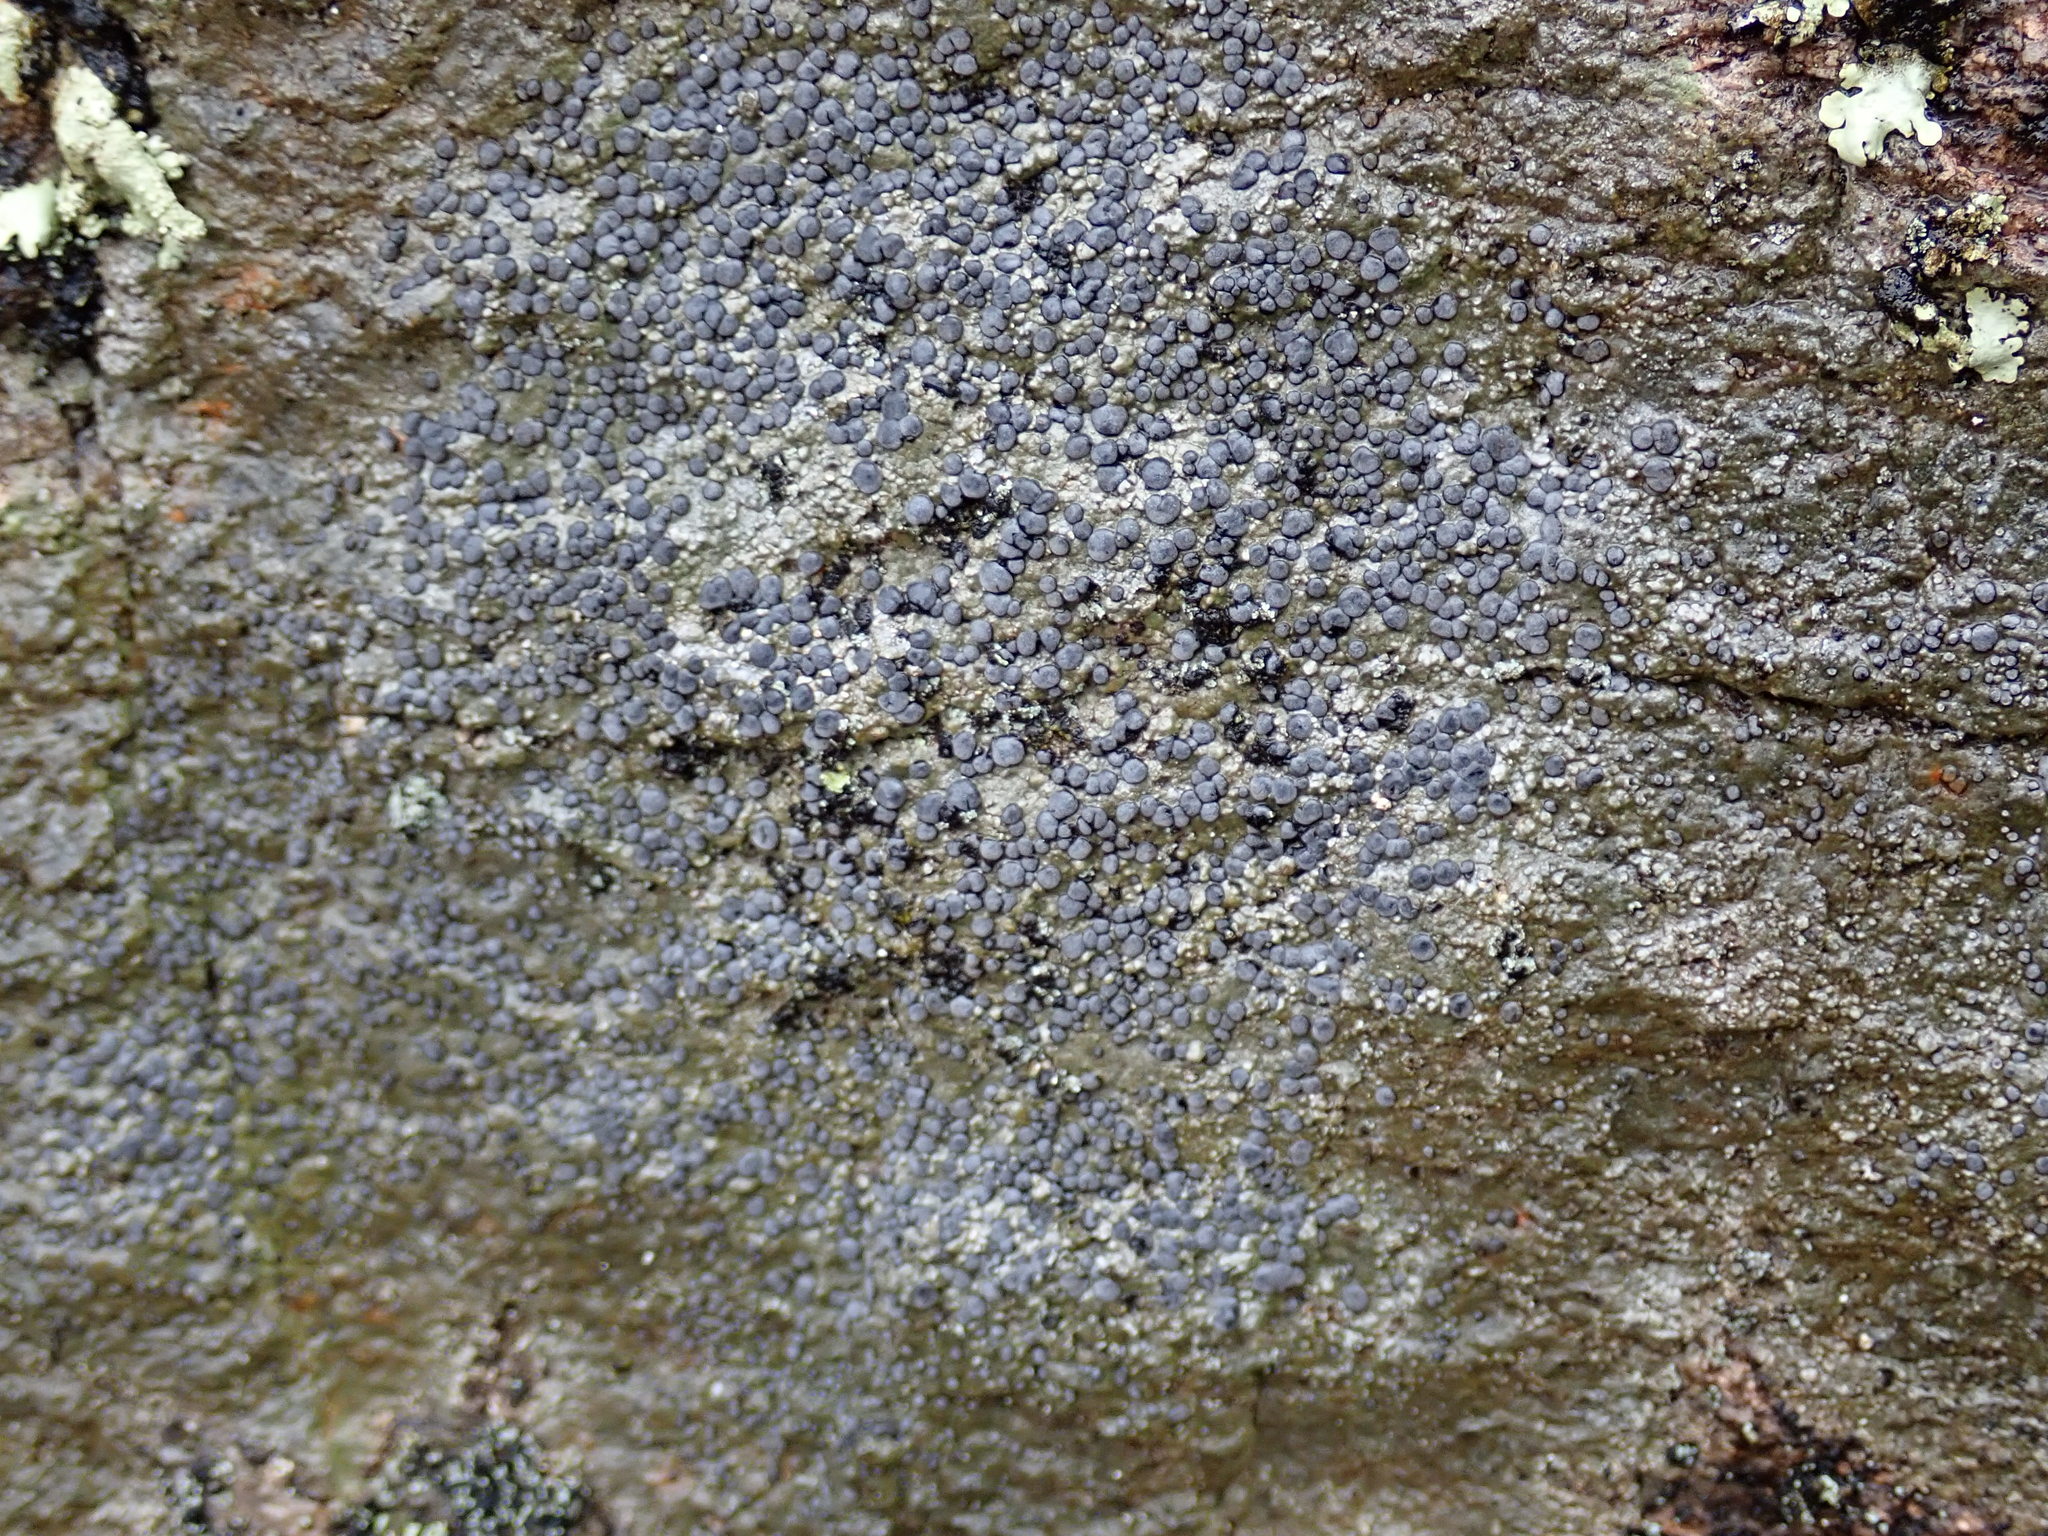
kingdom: Fungi
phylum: Ascomycota
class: Lecanoromycetes
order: Lecideales
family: Lecideaceae
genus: Porpidia
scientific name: Porpidia albocaerulescens
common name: Smokey-eyed boulder lichen
